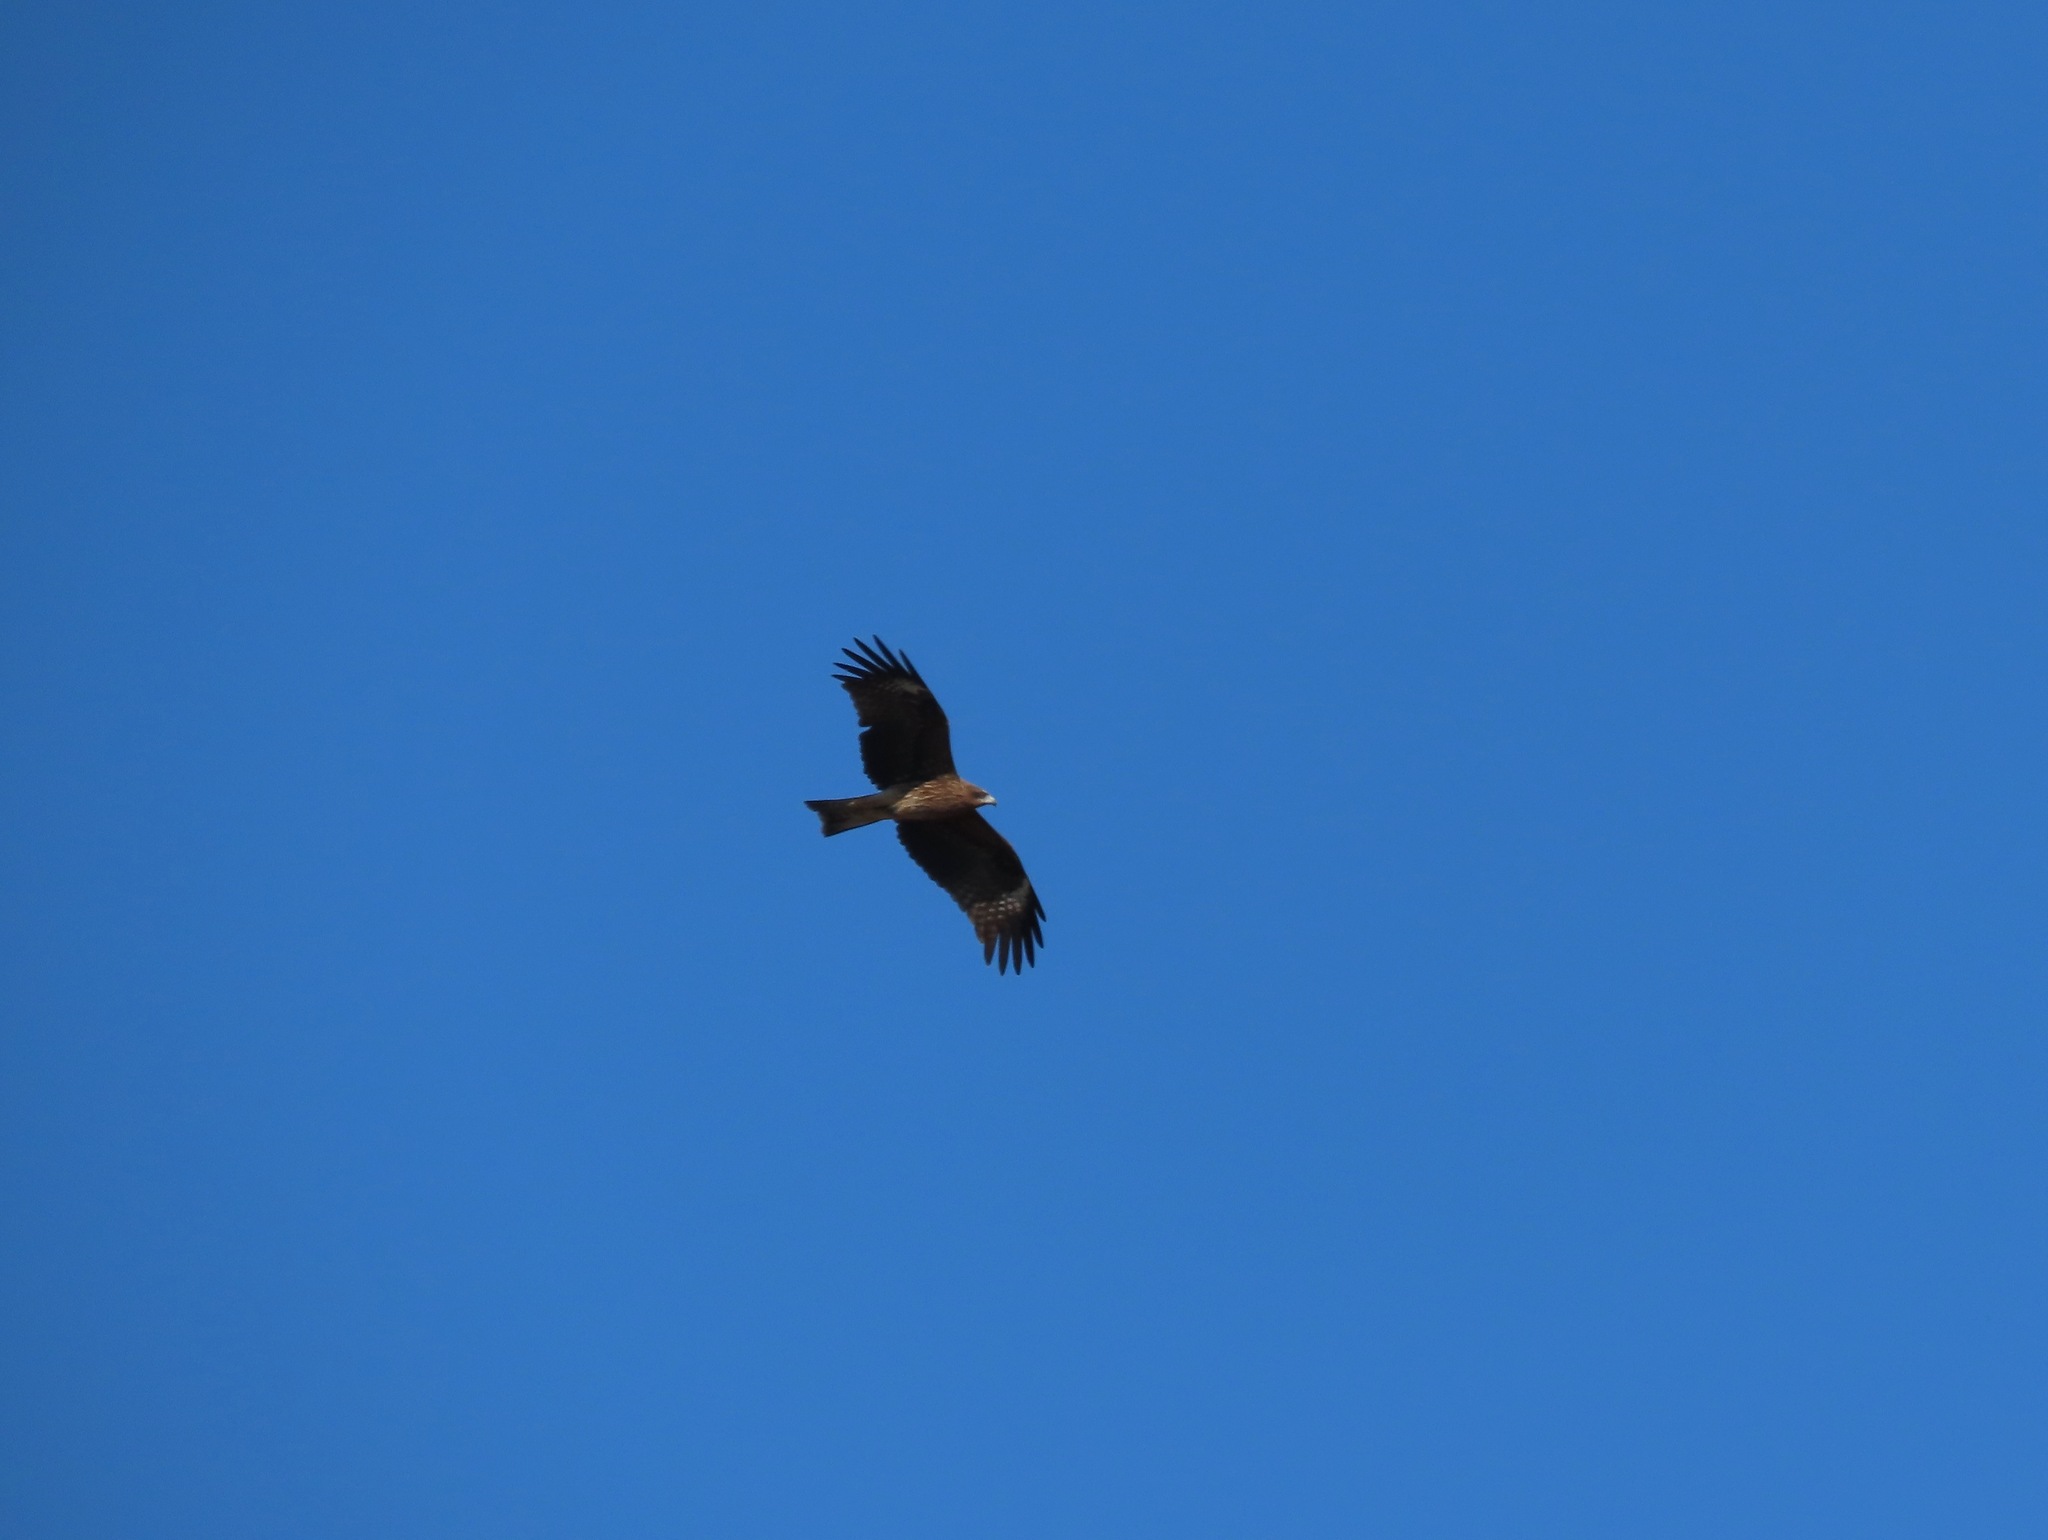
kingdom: Animalia
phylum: Chordata
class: Aves
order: Accipitriformes
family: Accipitridae
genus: Milvus
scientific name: Milvus migrans
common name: Black kite
